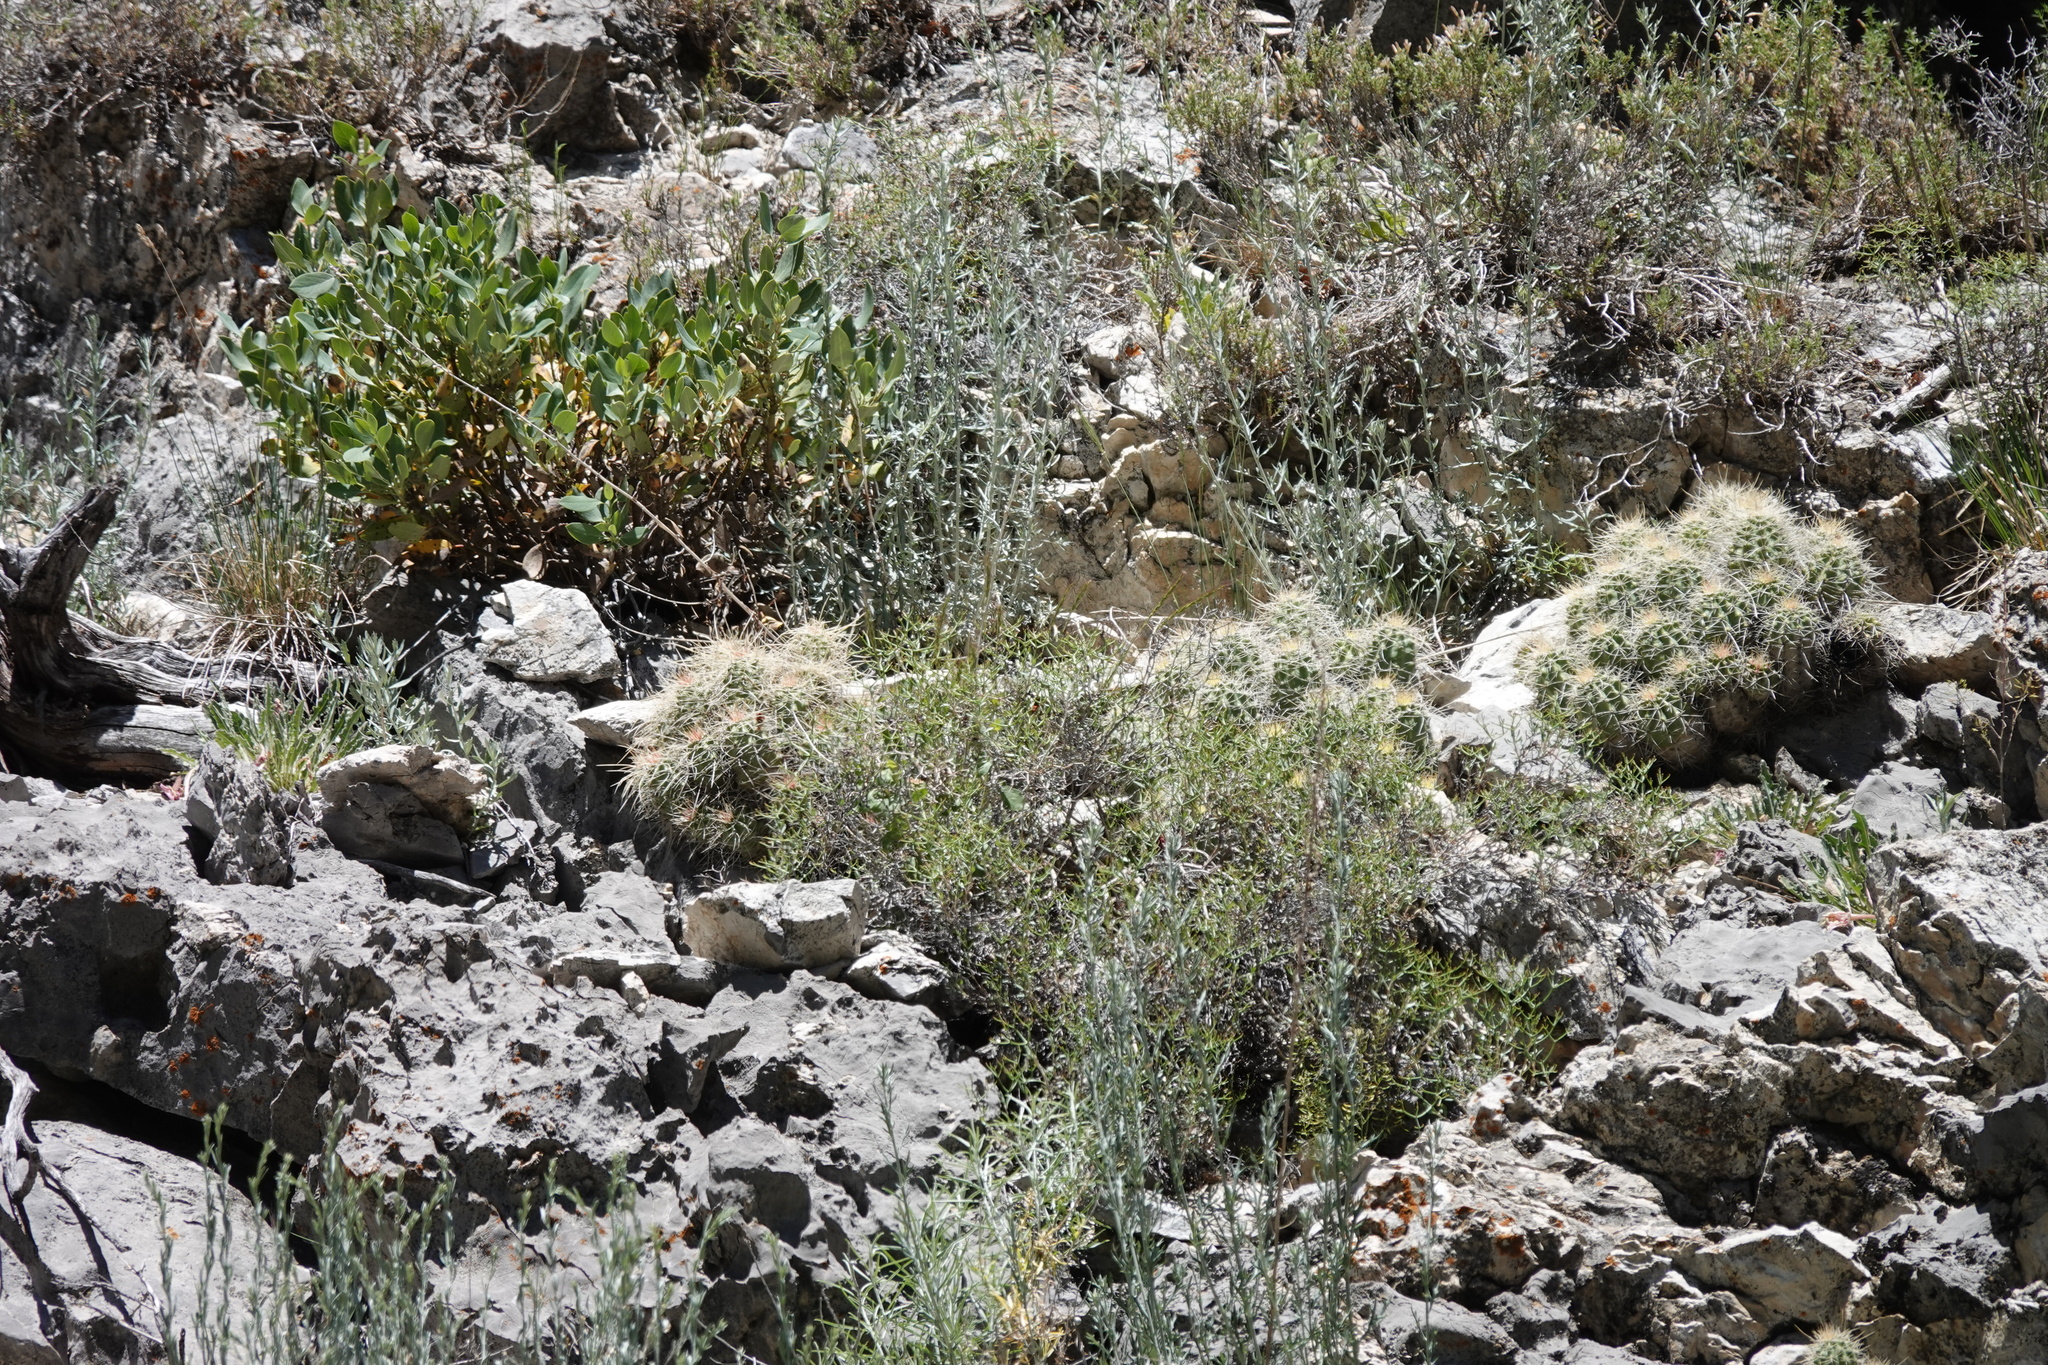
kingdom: Plantae
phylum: Tracheophyta
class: Magnoliopsida
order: Caryophyllales
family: Cactaceae
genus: Echinocereus
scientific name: Echinocereus triglochidiatus
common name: Claretcup hedgehog
